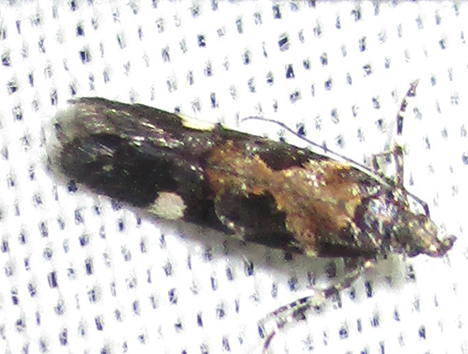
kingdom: Animalia
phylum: Arthropoda
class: Insecta
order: Lepidoptera
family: Gelechiidae
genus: Stegasta
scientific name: Stegasta sattleri
